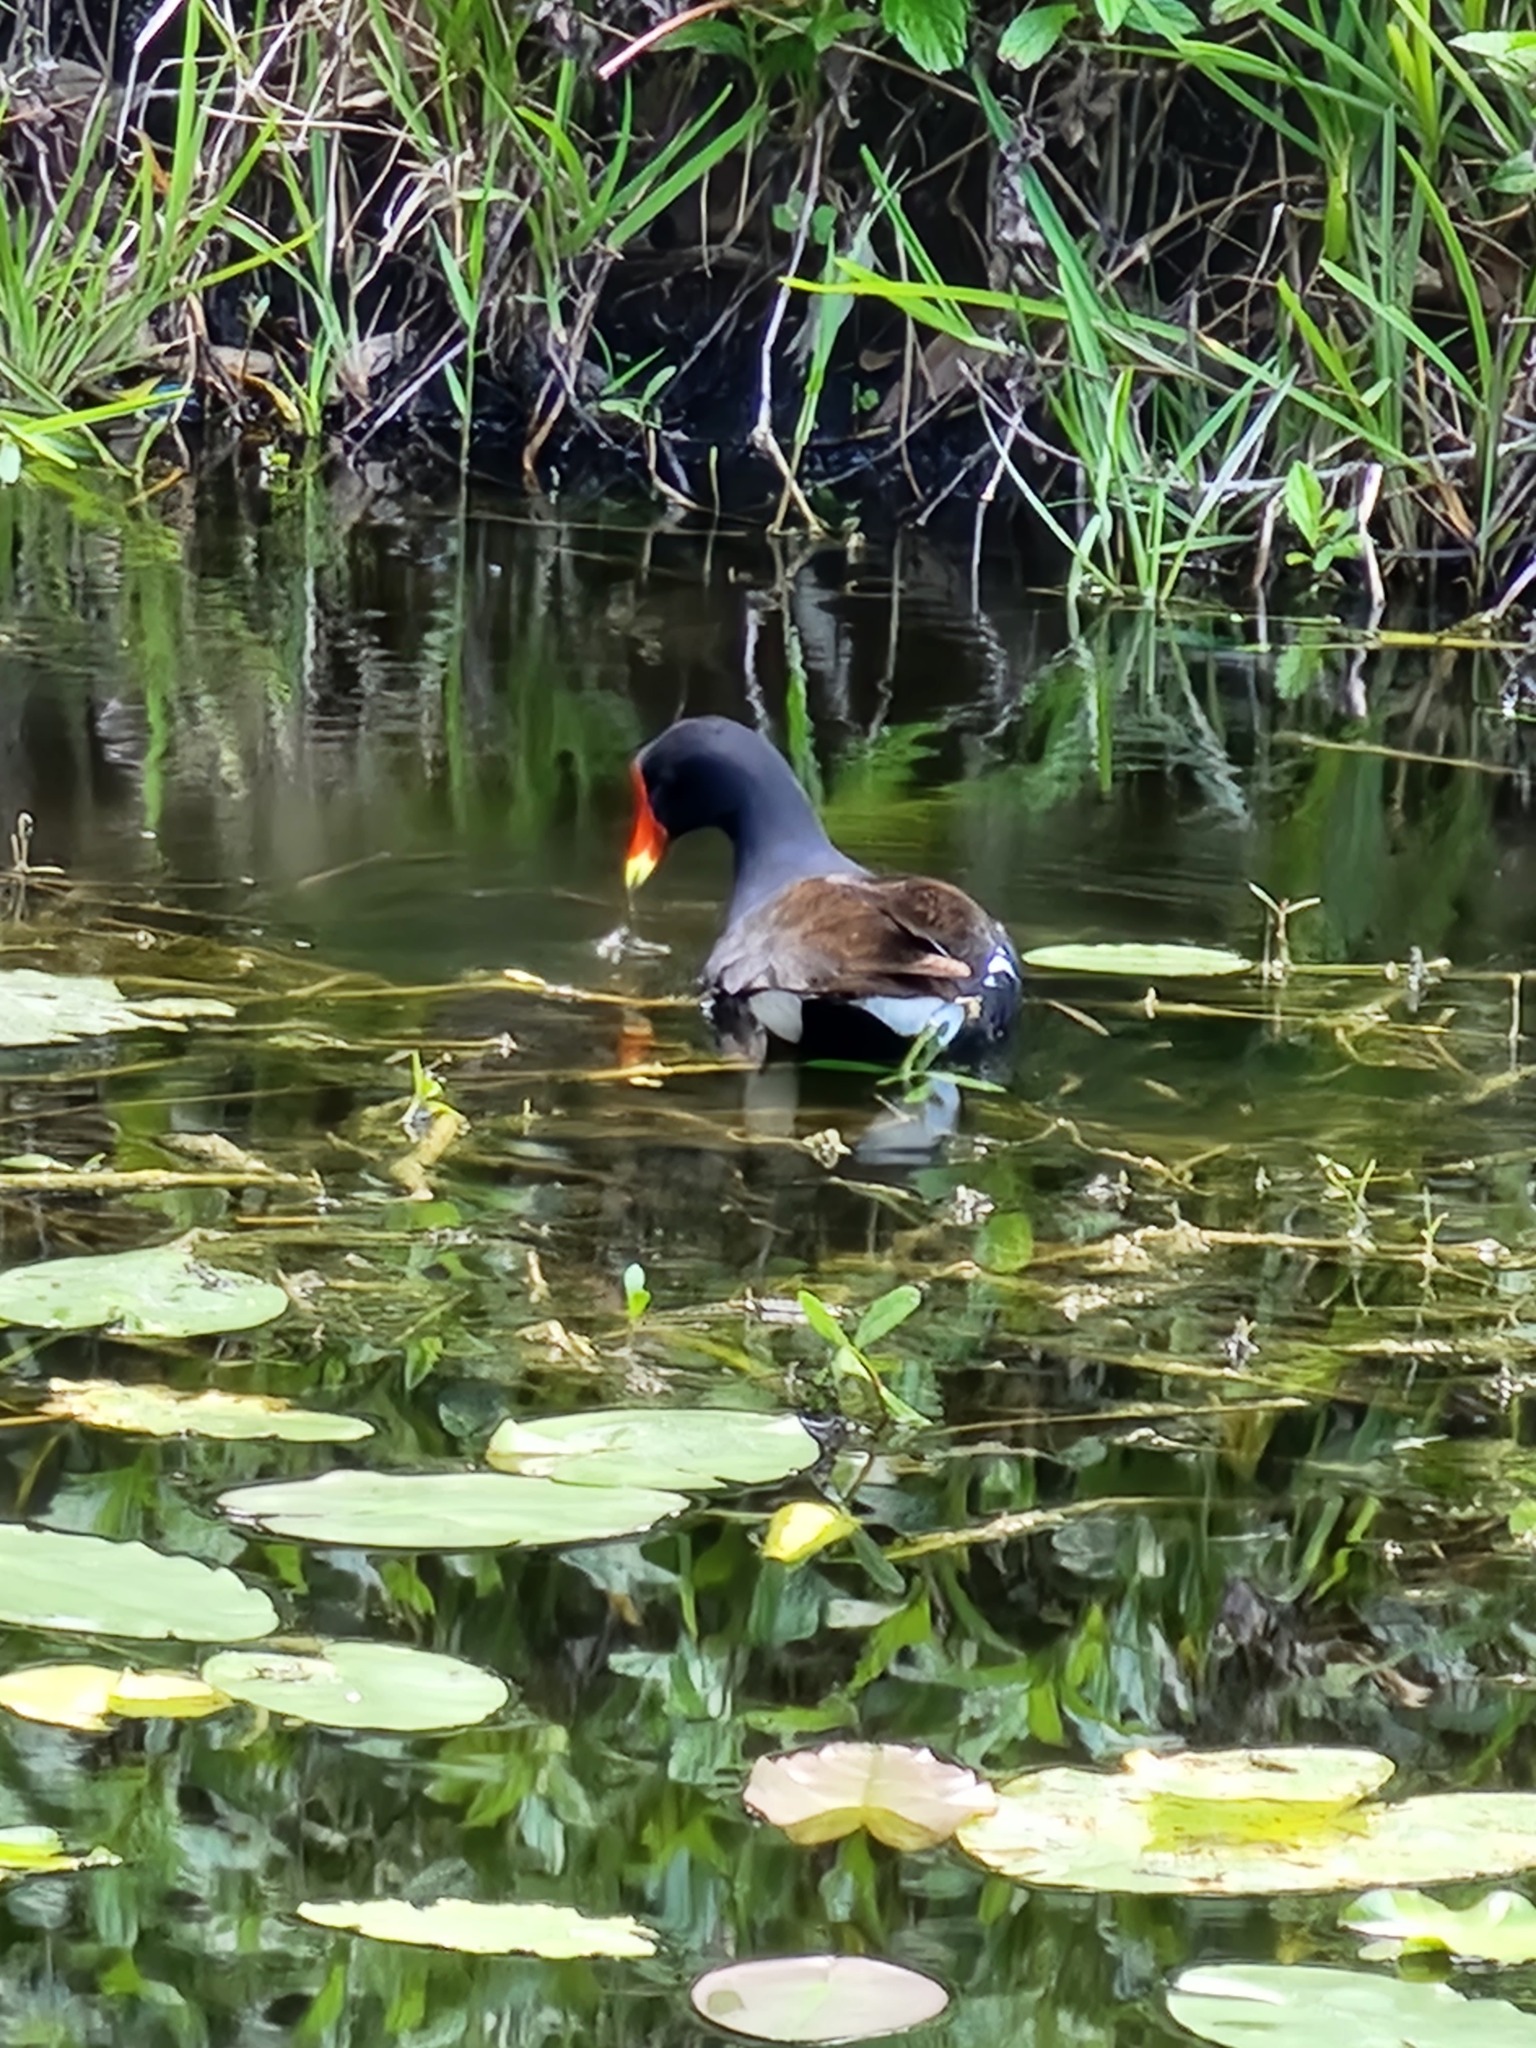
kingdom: Animalia
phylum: Chordata
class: Aves
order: Gruiformes
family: Rallidae
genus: Gallinula
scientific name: Gallinula chloropus
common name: Common moorhen
